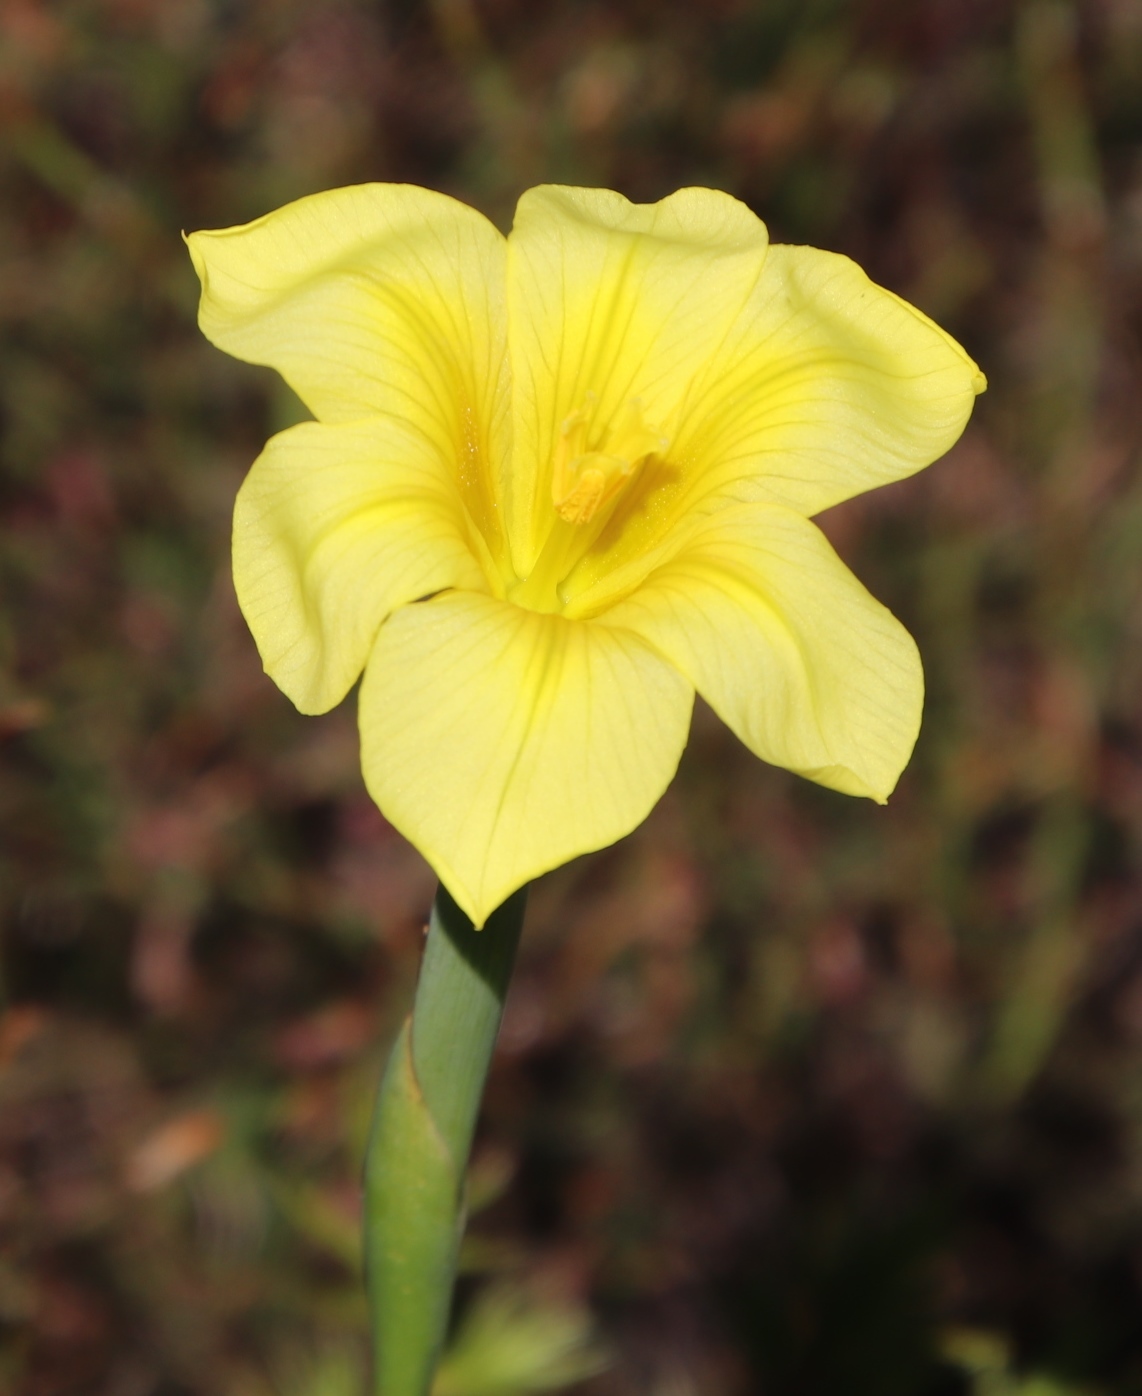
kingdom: Plantae
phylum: Tracheophyta
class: Liliopsida
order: Asparagales
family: Iridaceae
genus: Moraea
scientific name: Moraea ochroleuca
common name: Red tulp
